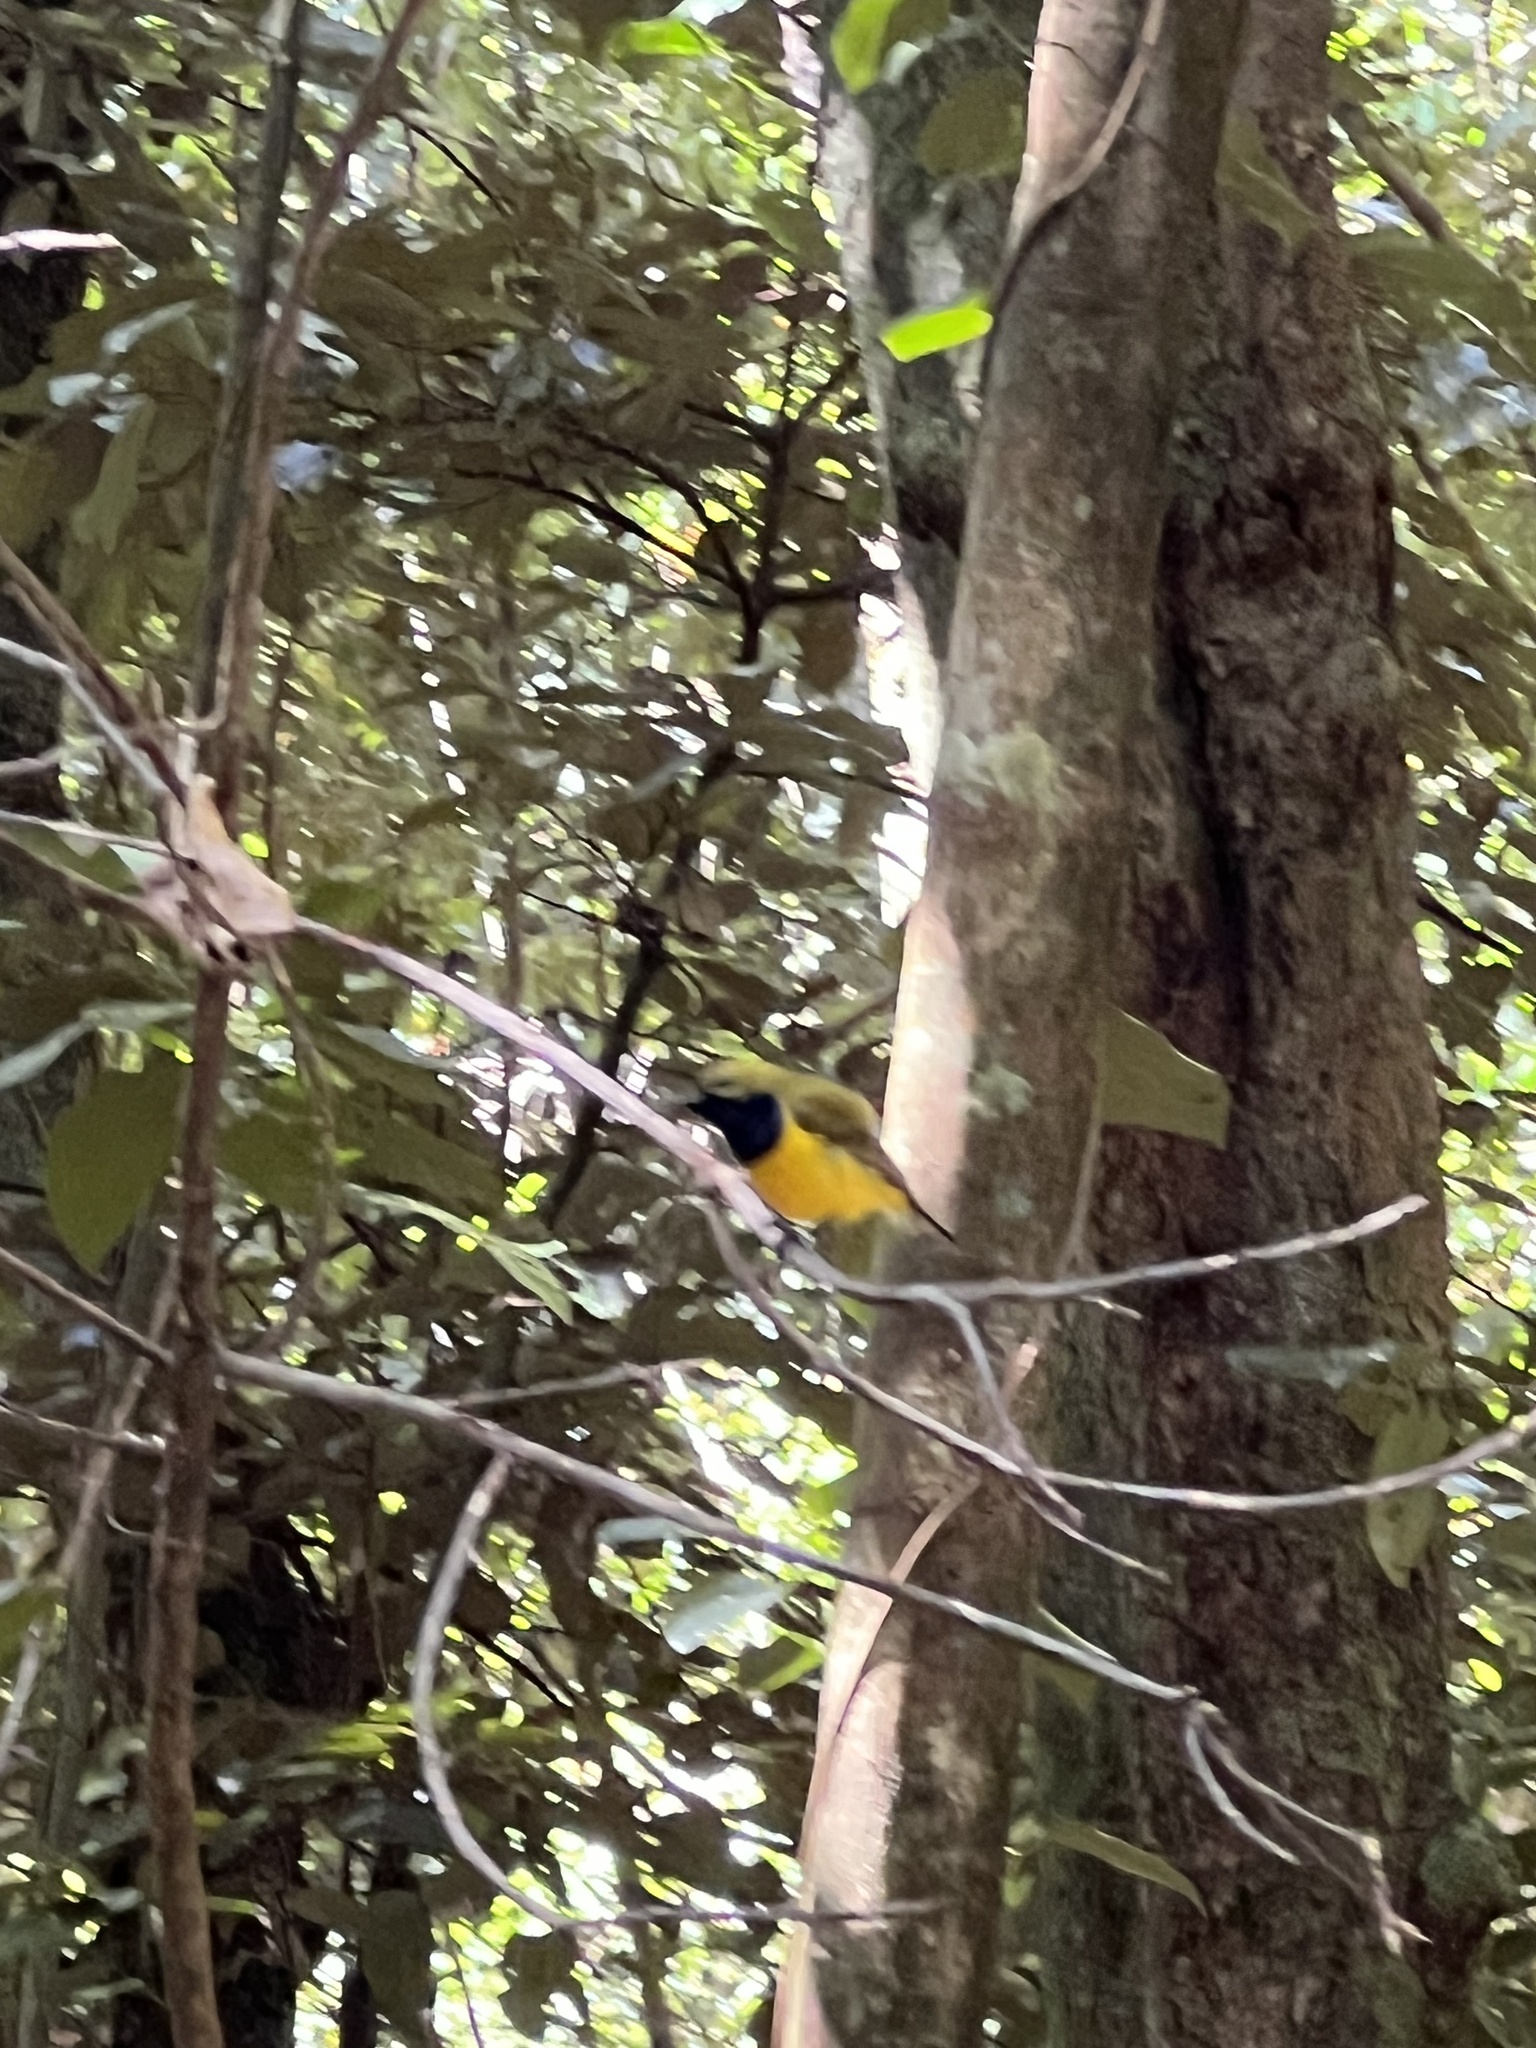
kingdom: Animalia
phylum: Chordata
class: Aves
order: Passeriformes
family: Nectariniidae
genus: Cinnyris
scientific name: Cinnyris
